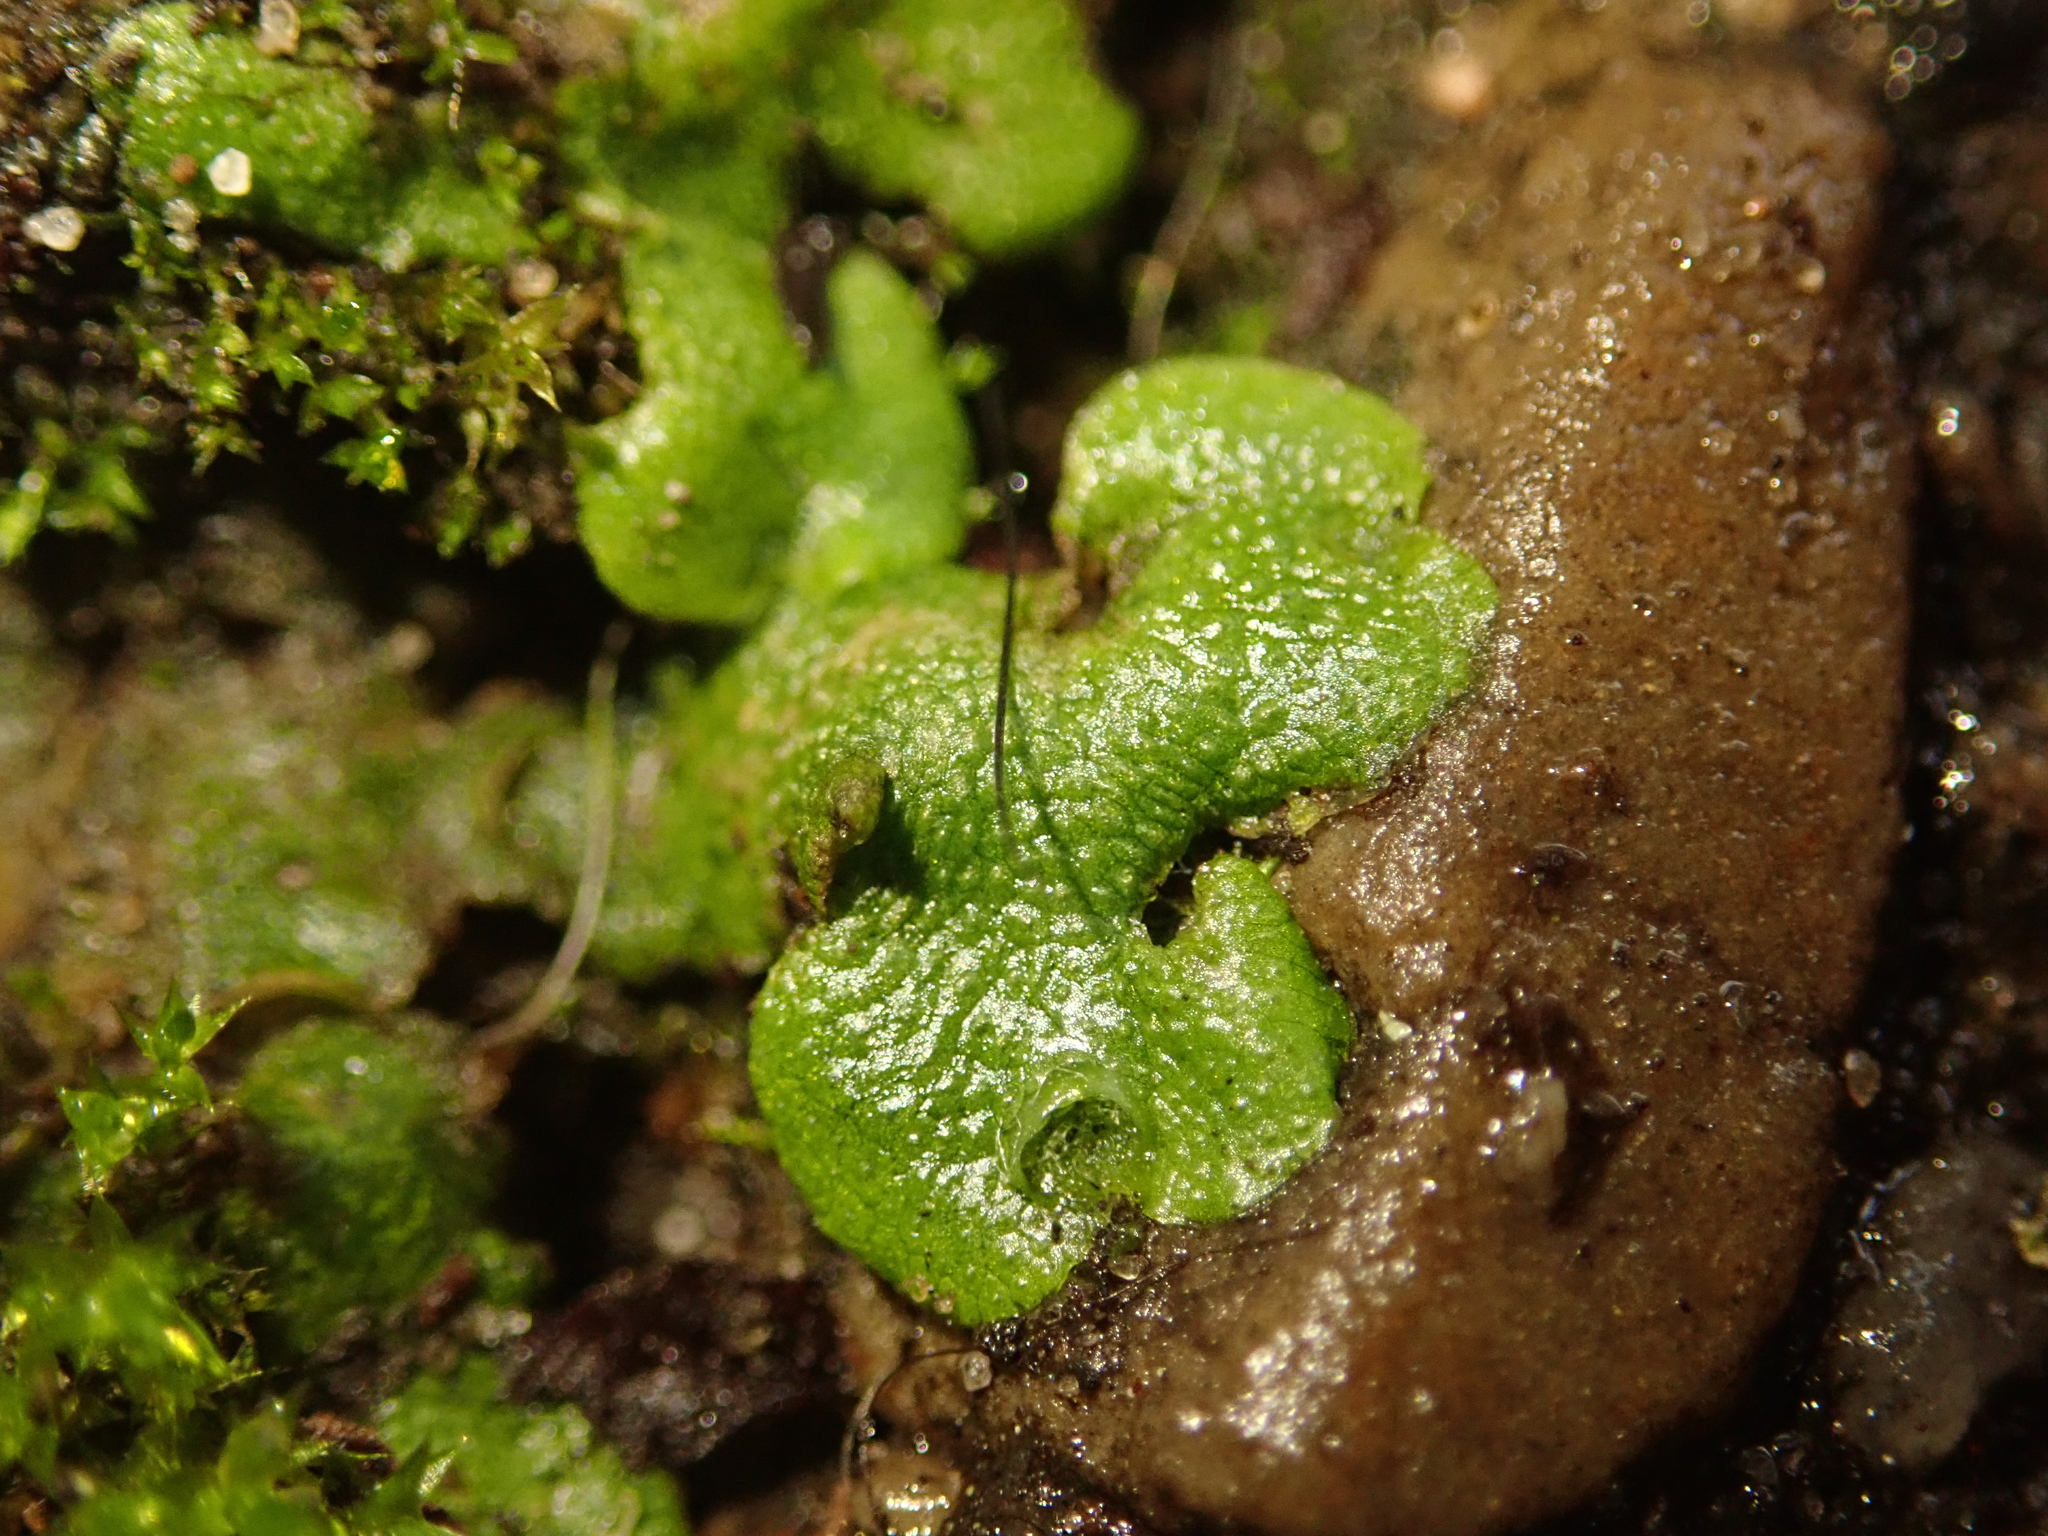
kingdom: Plantae
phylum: Marchantiophyta
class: Marchantiopsida
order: Lunulariales
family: Lunulariaceae
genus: Lunularia
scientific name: Lunularia cruciata
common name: Crescent-cup liverwort
